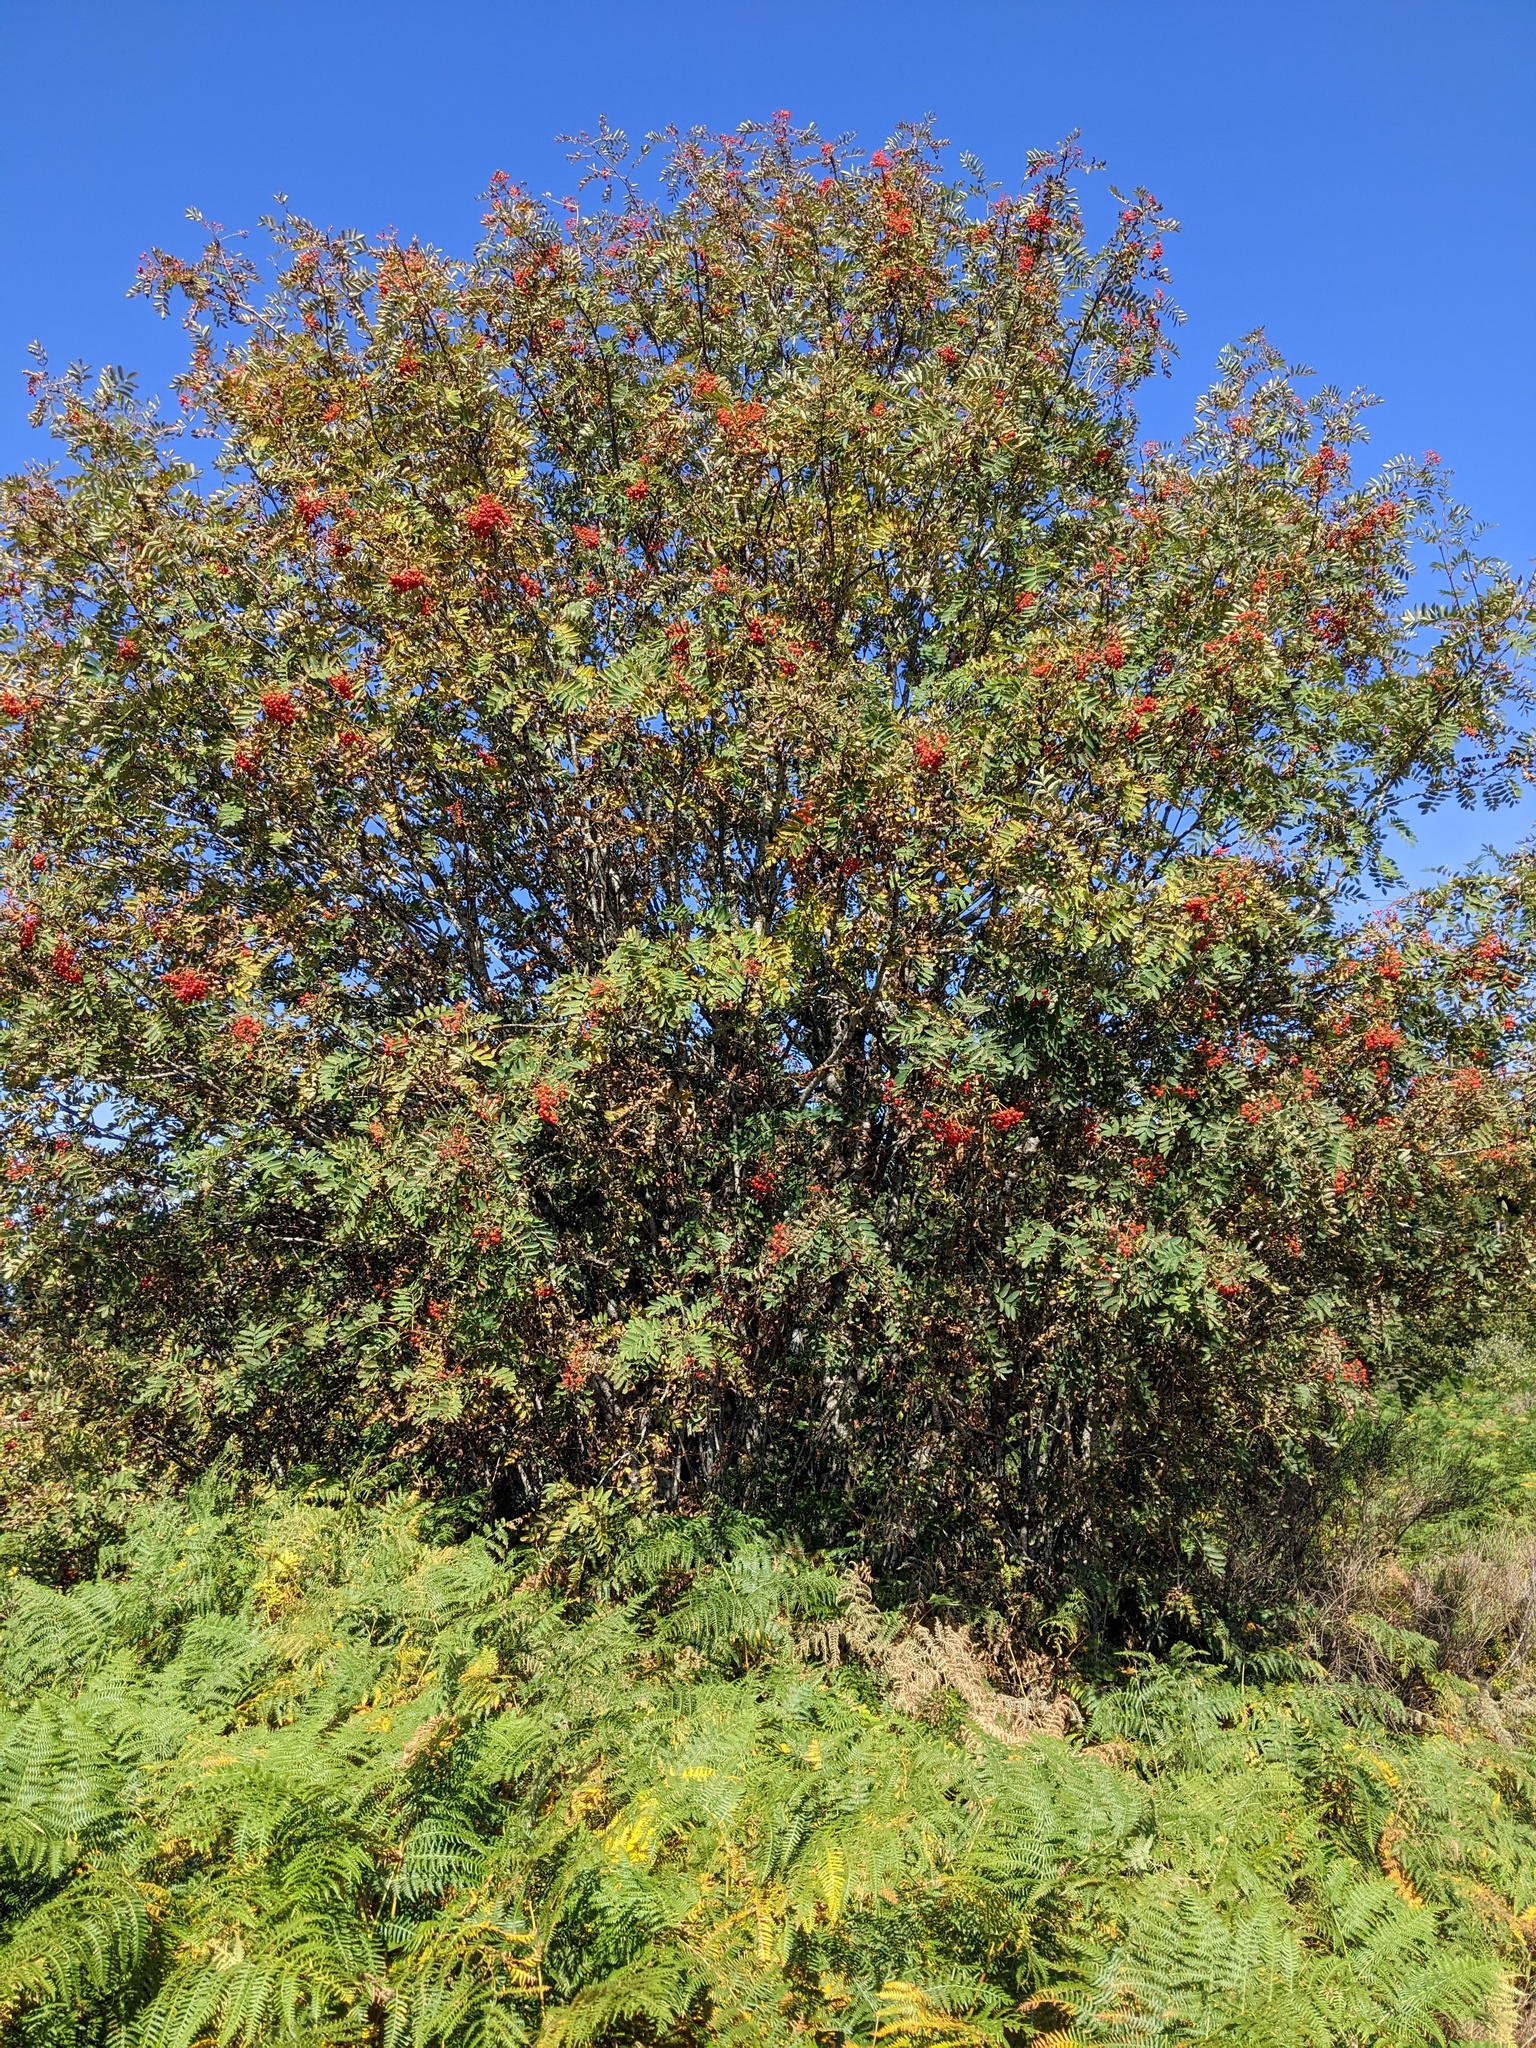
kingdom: Plantae
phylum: Tracheophyta
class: Magnoliopsida
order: Rosales
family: Rosaceae
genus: Sorbus
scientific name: Sorbus aucuparia
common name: Rowan
